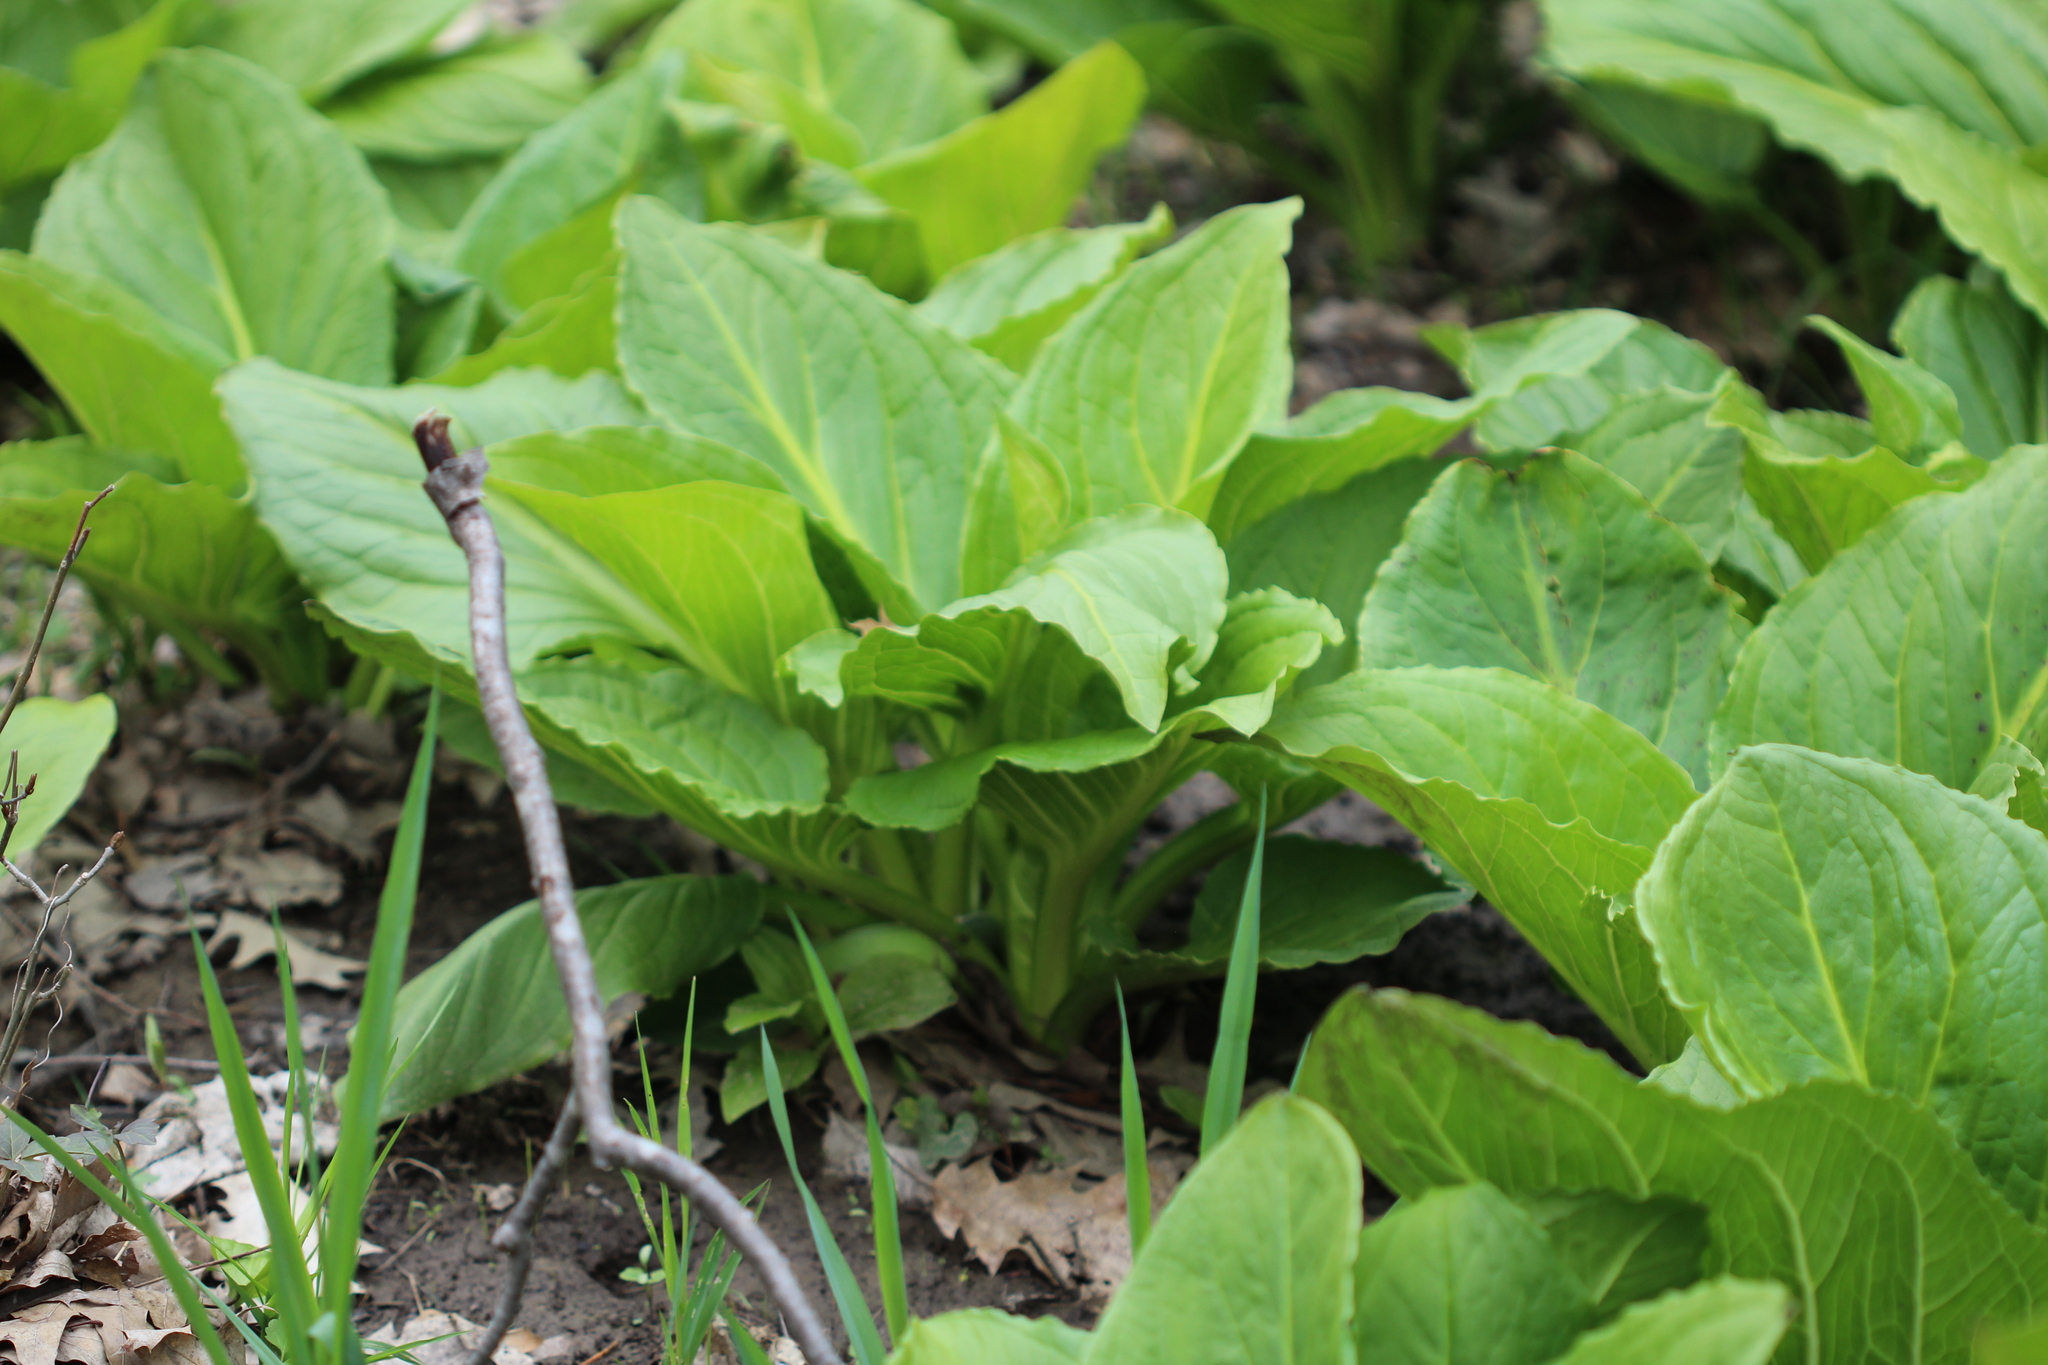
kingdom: Plantae
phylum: Tracheophyta
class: Liliopsida
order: Alismatales
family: Araceae
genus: Symplocarpus
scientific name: Symplocarpus foetidus
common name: Eastern skunk cabbage
